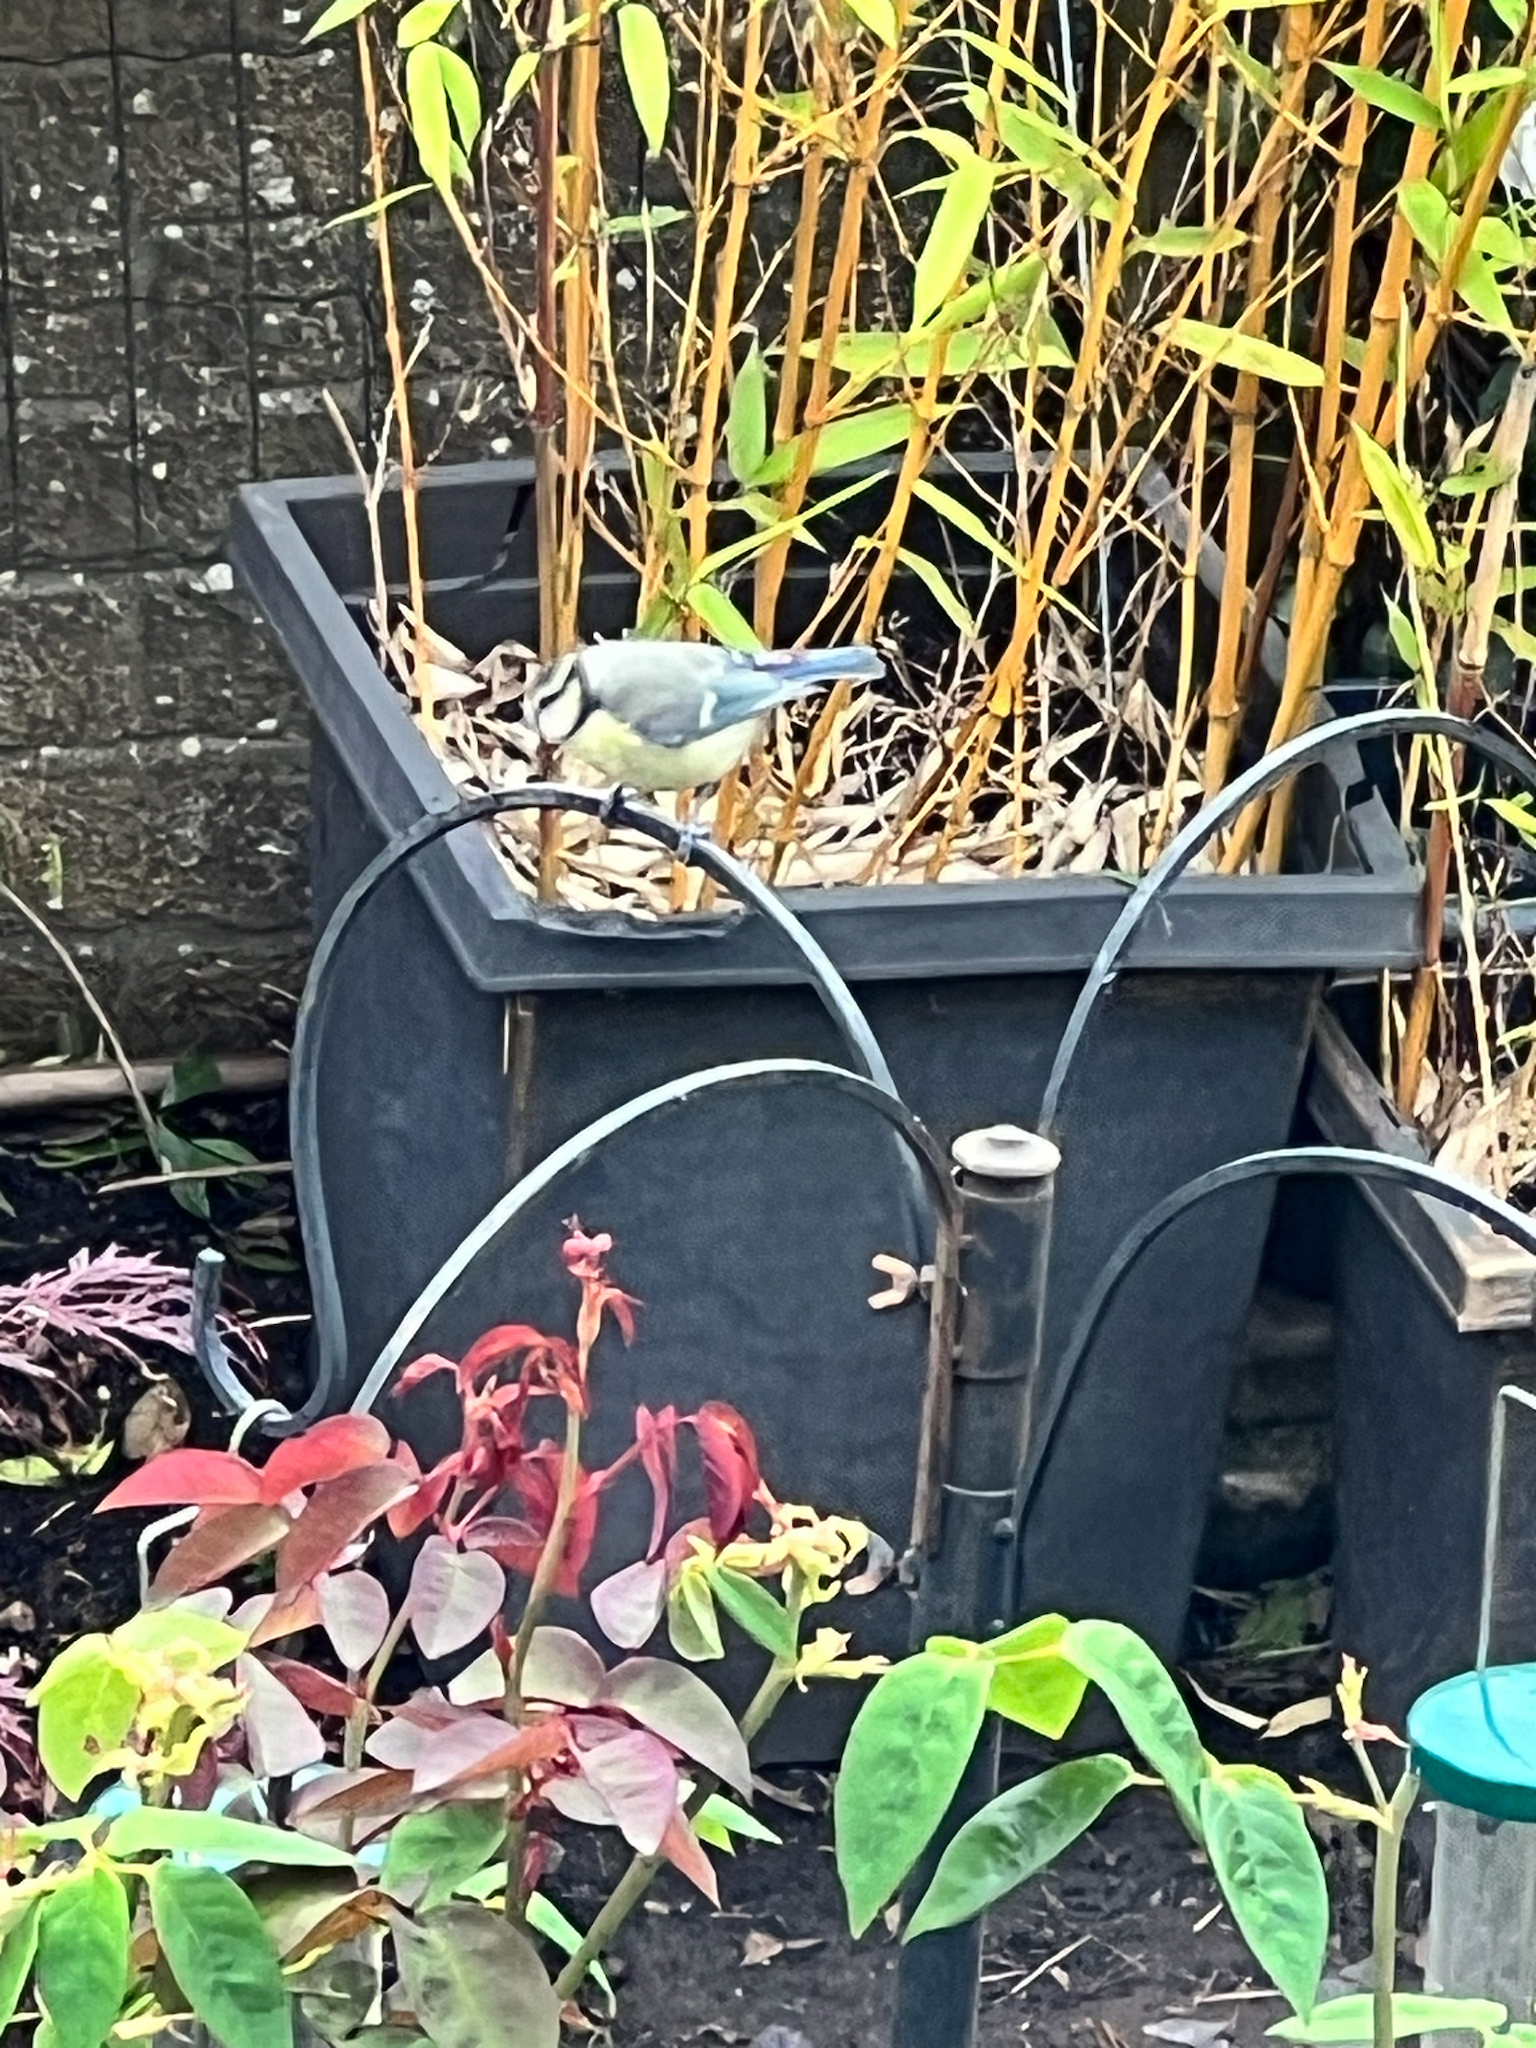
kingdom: Animalia
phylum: Chordata
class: Aves
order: Passeriformes
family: Paridae
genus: Cyanistes
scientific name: Cyanistes caeruleus
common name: Eurasian blue tit
